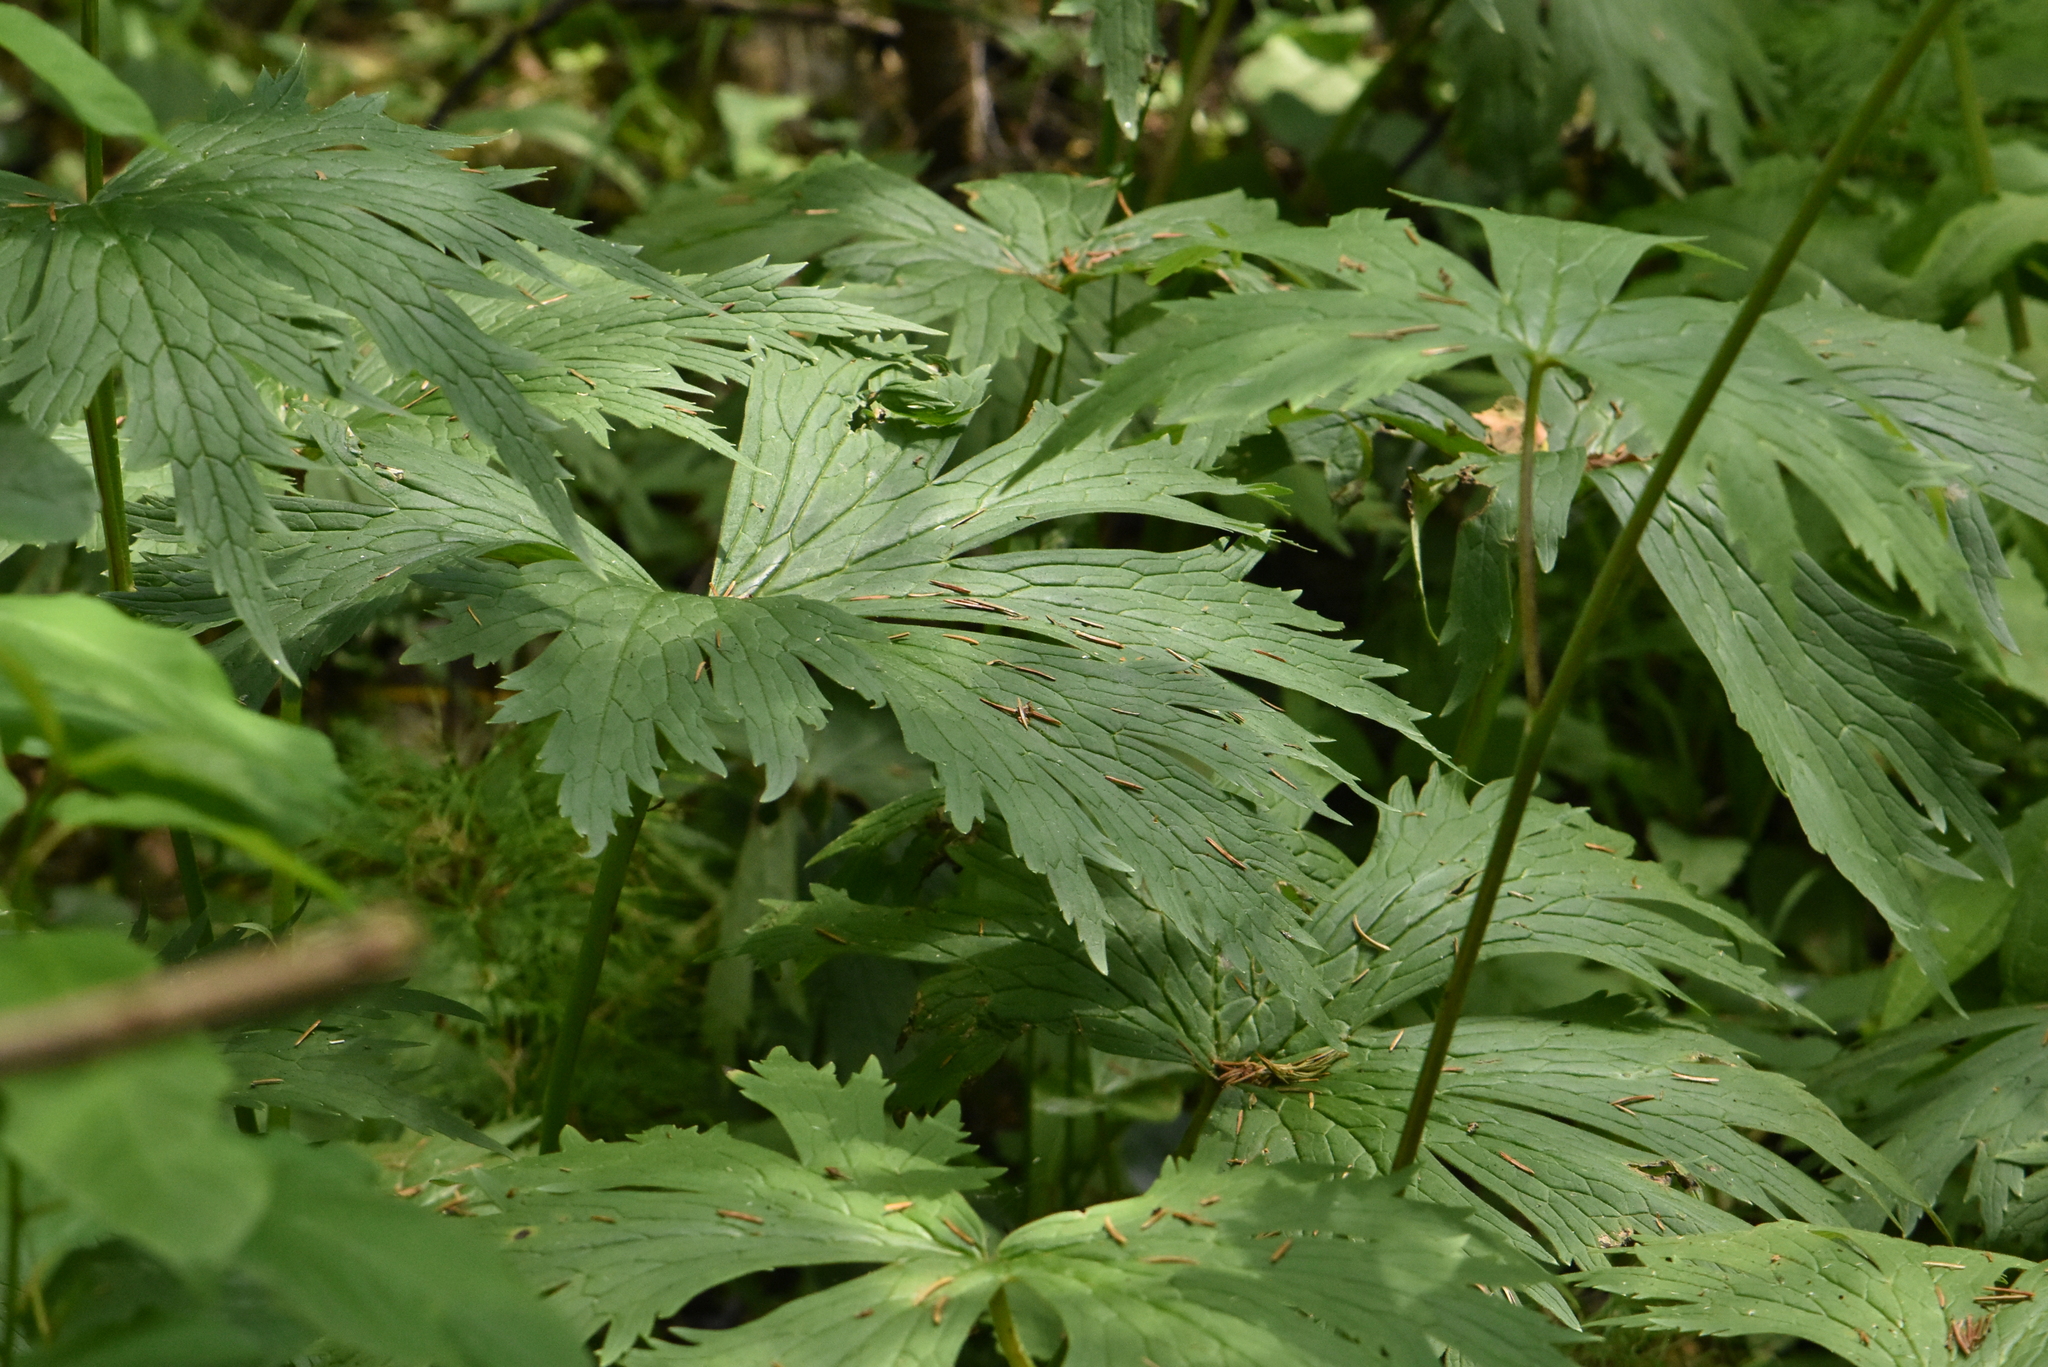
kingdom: Plantae
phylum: Tracheophyta
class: Magnoliopsida
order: Ranunculales
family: Ranunculaceae
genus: Aconitum
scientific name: Aconitum septentrionale
